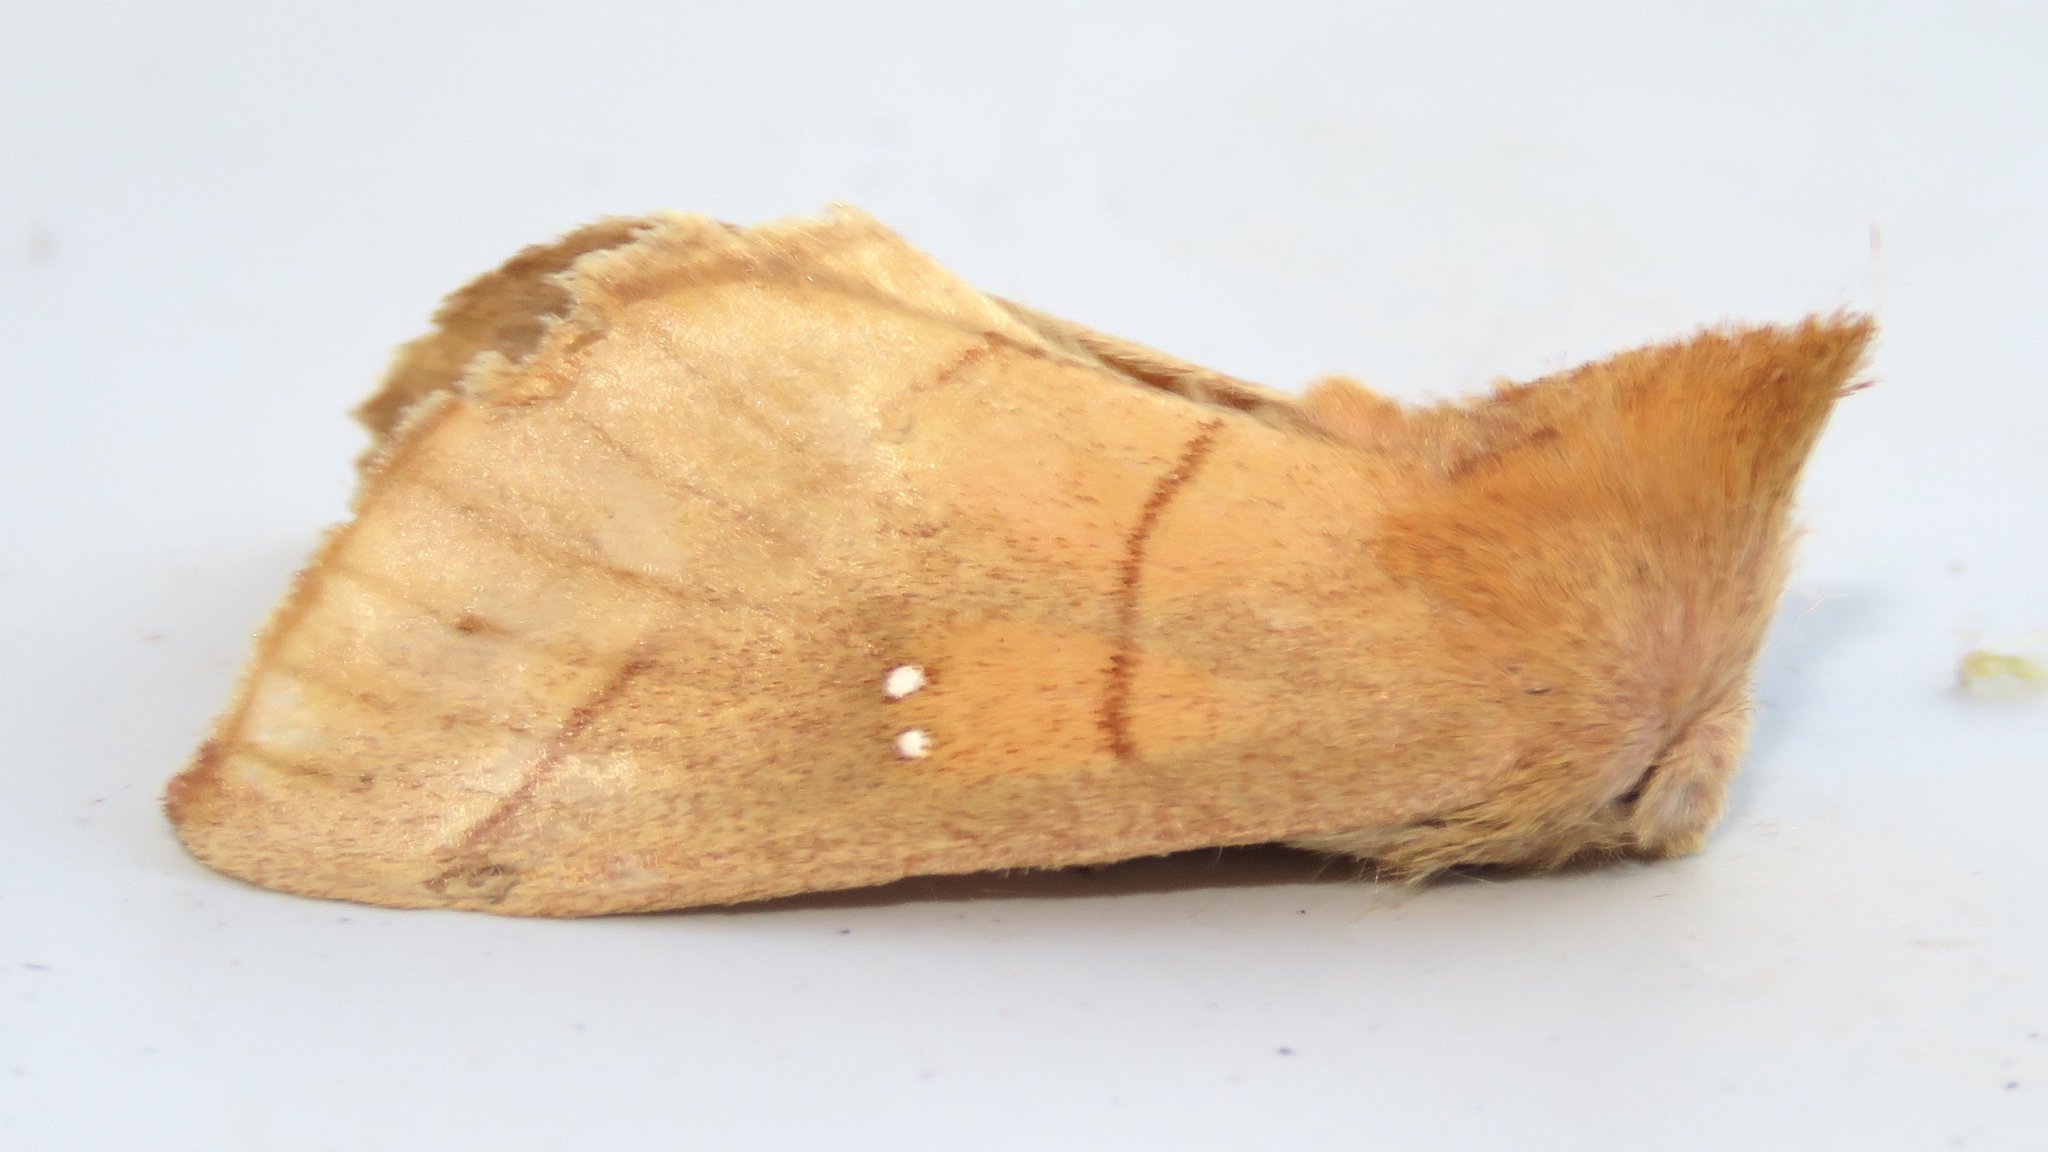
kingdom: Animalia
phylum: Arthropoda
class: Insecta
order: Lepidoptera
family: Notodontidae
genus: Nadata
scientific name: Nadata gibbosa
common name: White-dotted prominent
